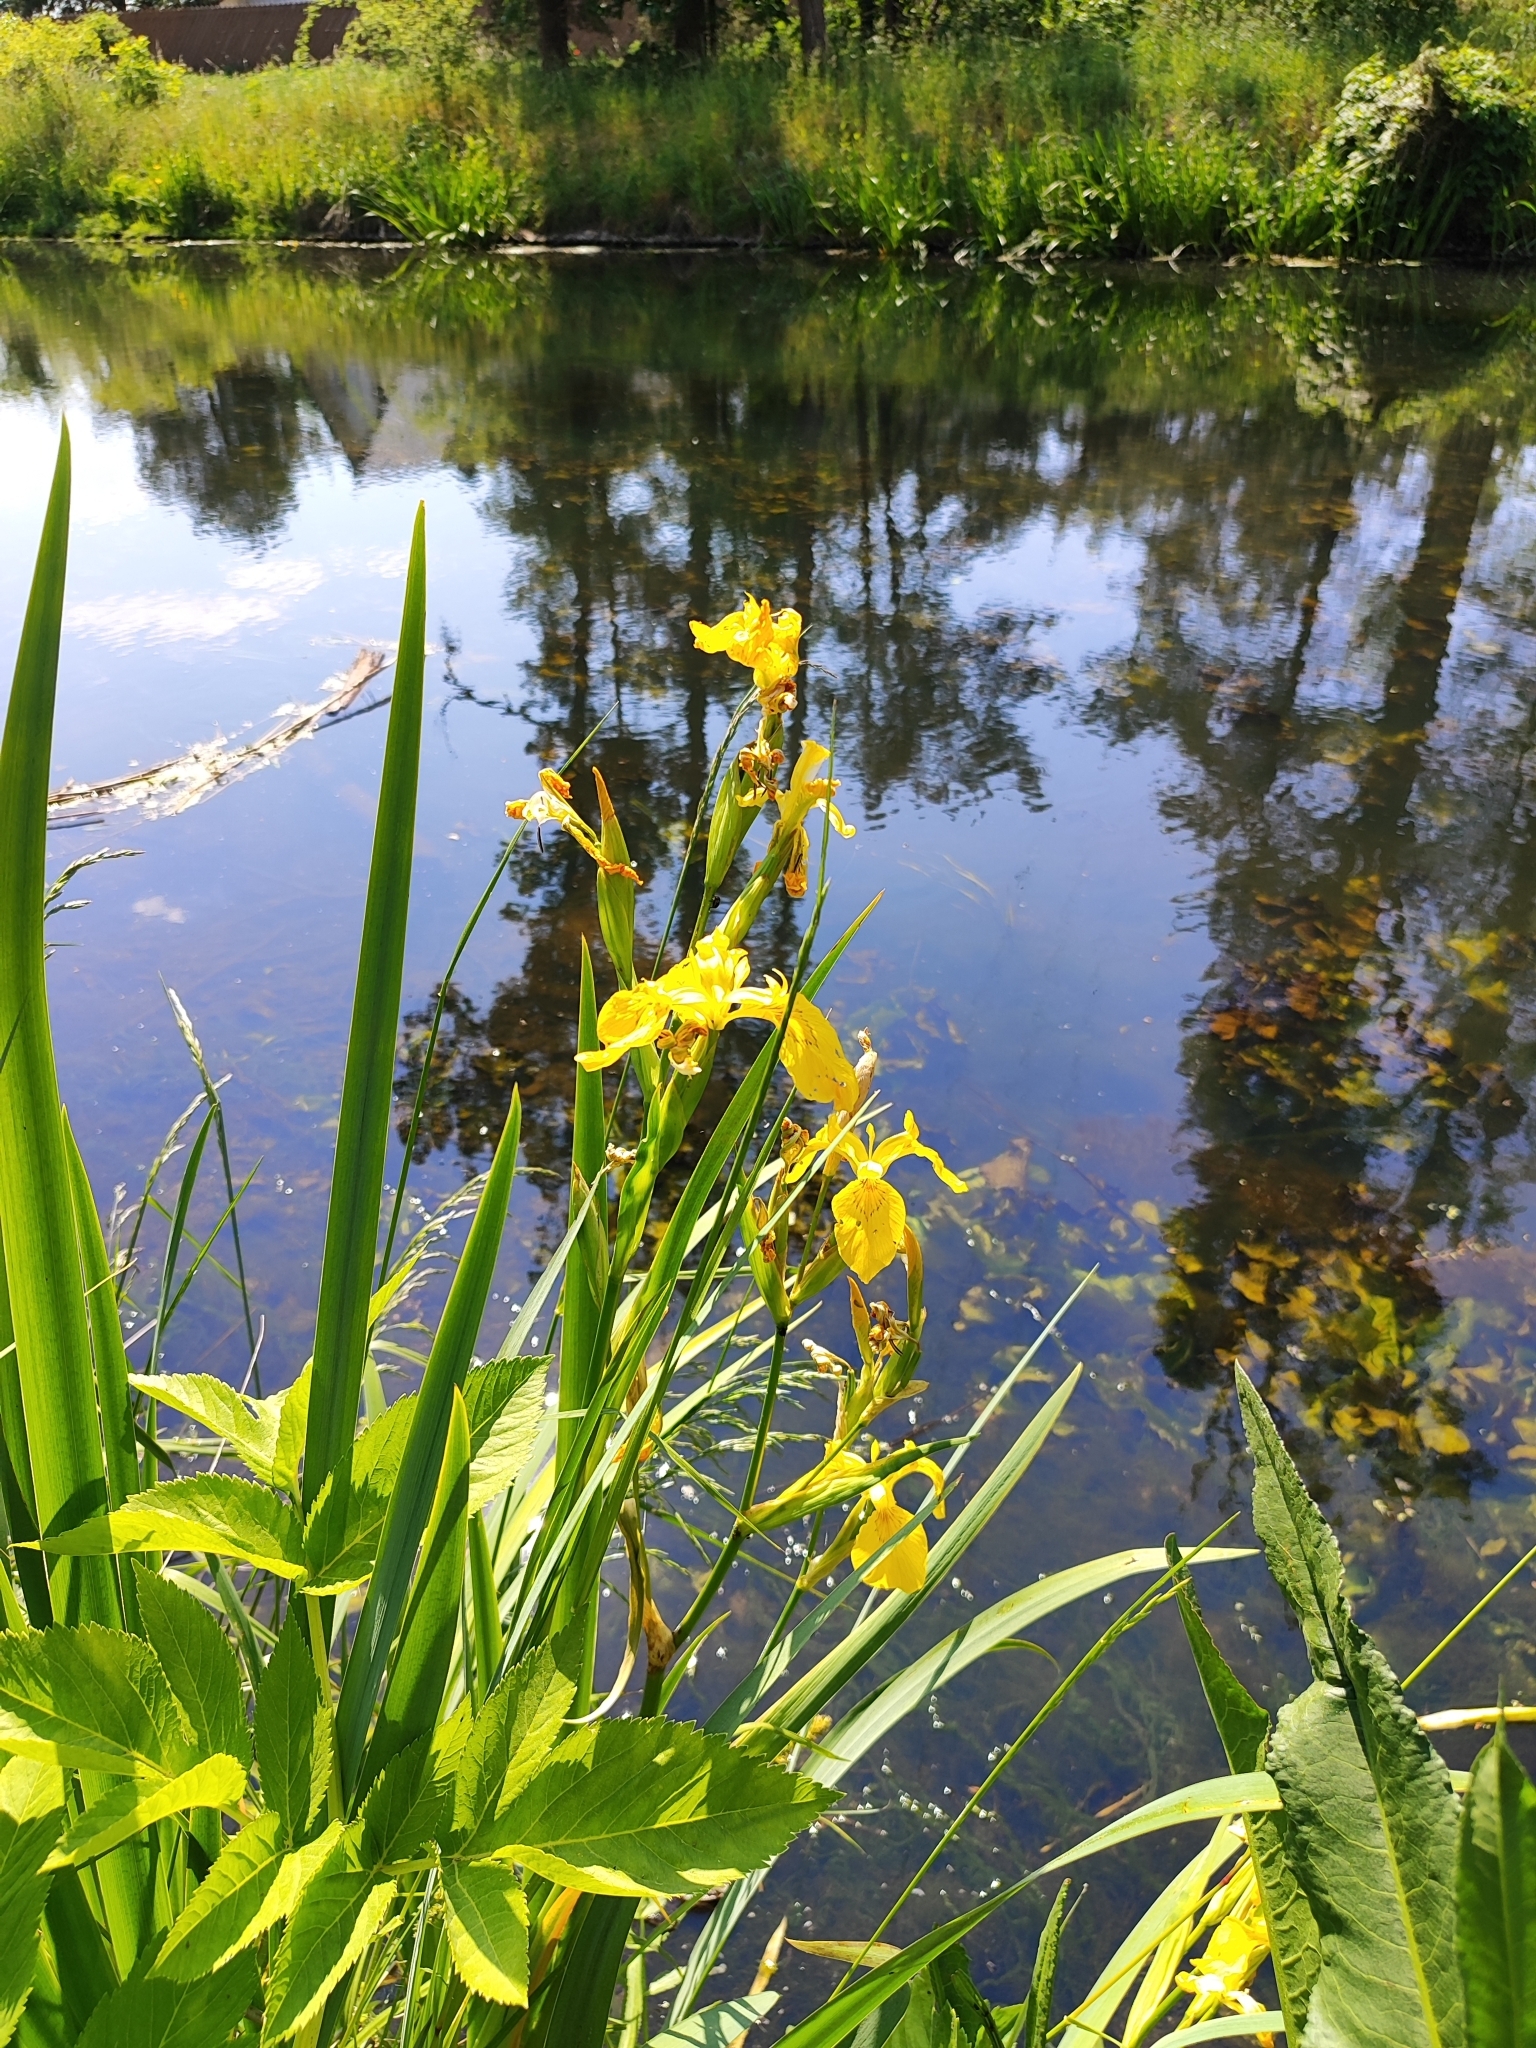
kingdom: Plantae
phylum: Tracheophyta
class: Liliopsida
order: Asparagales
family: Iridaceae
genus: Iris
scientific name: Iris pseudacorus
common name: Yellow flag
